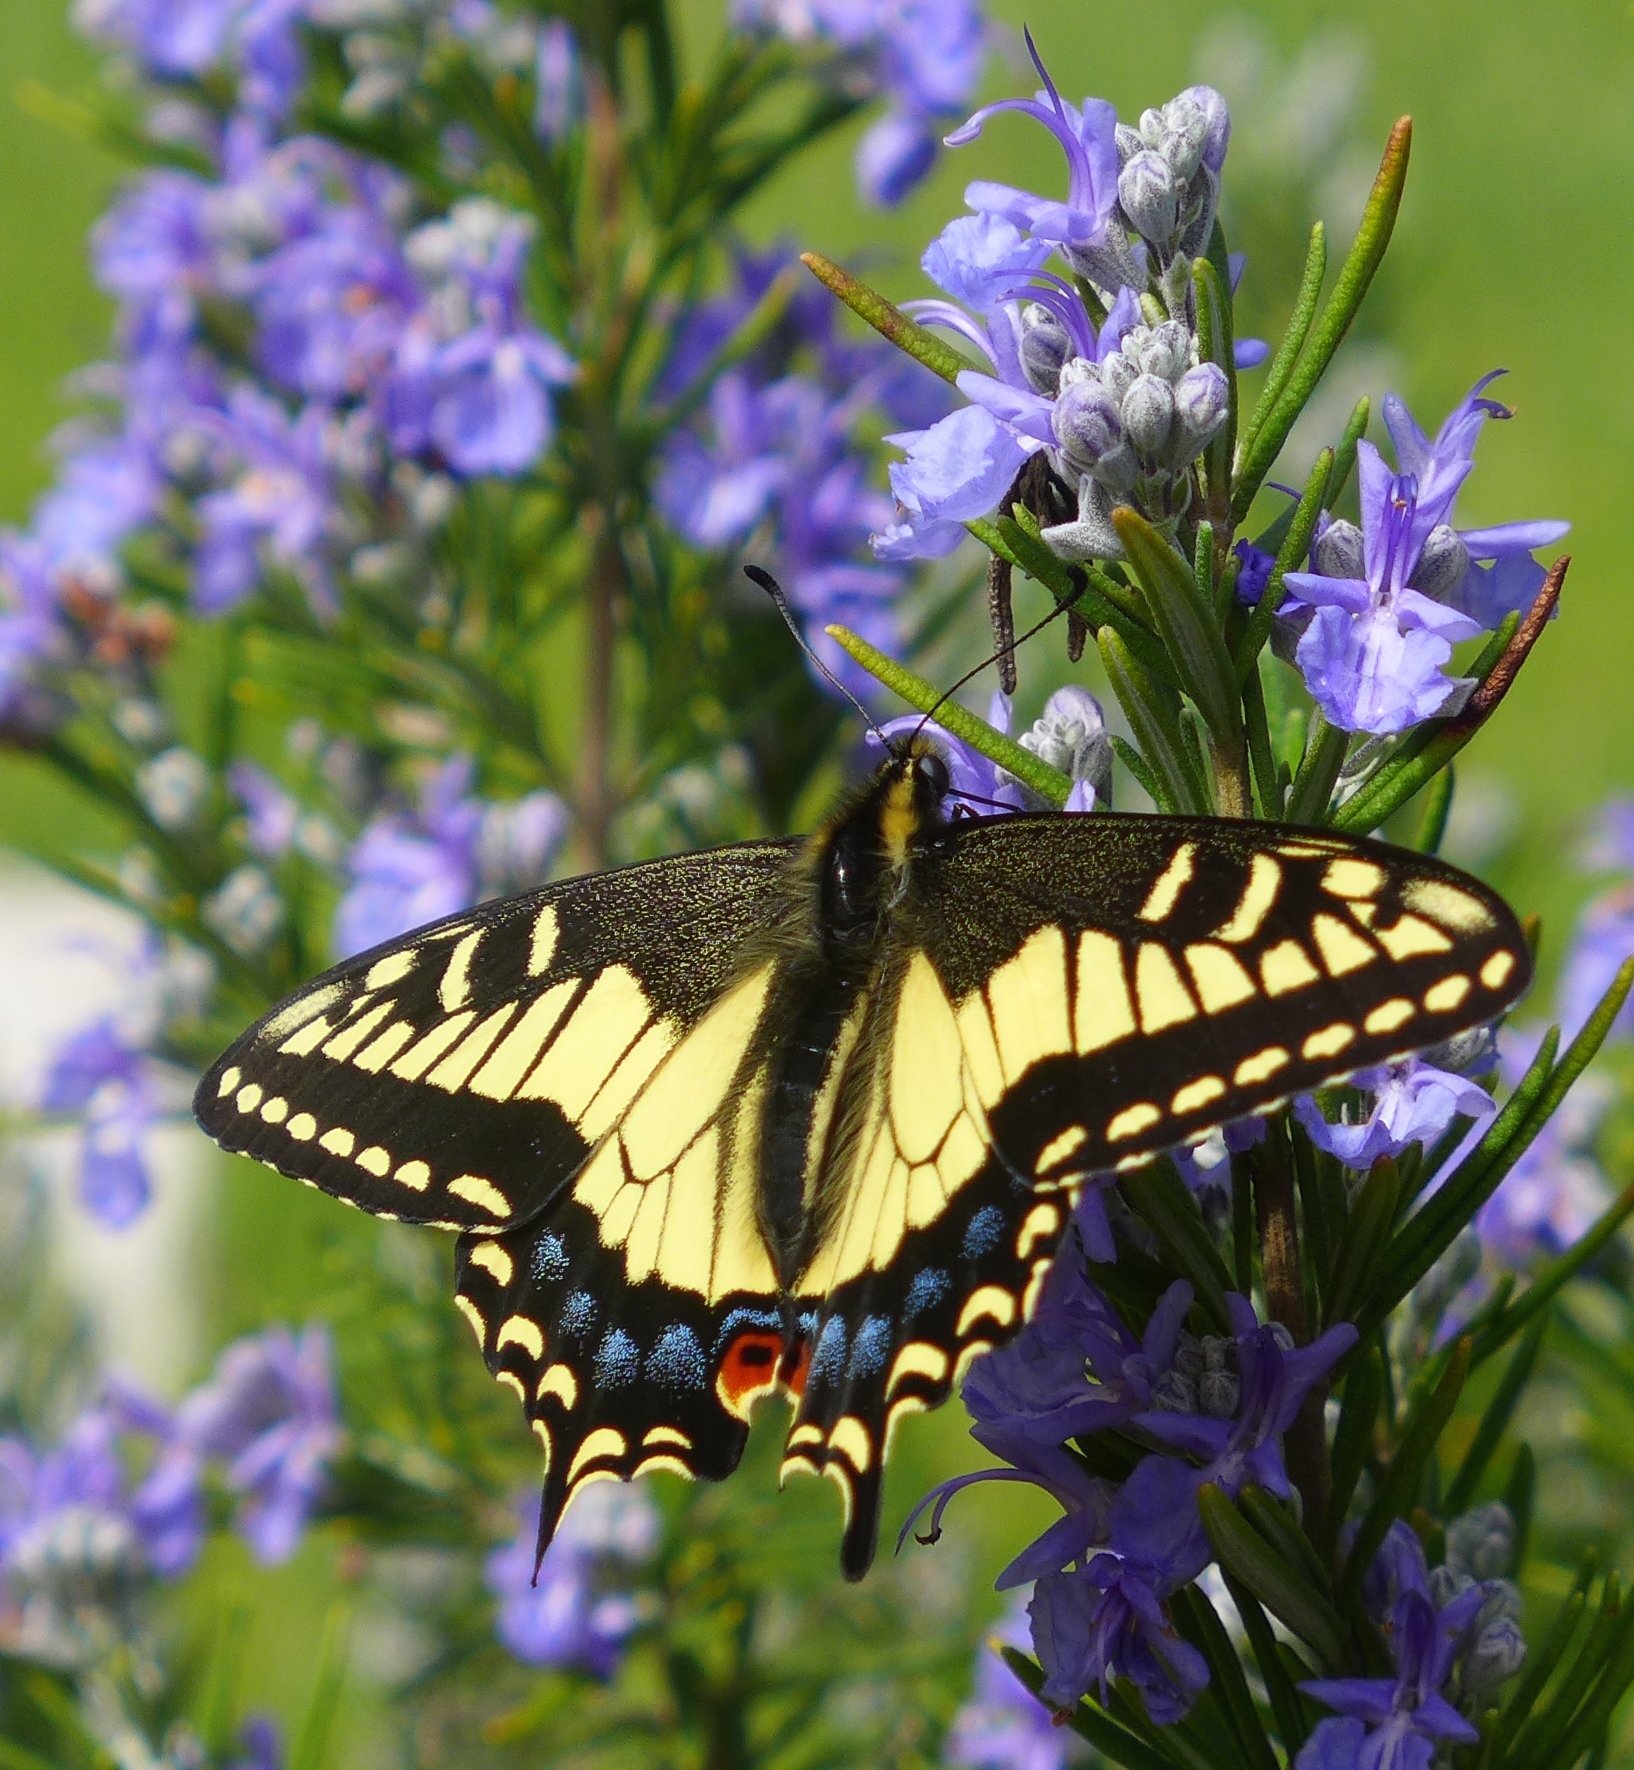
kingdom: Animalia
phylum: Arthropoda
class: Insecta
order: Lepidoptera
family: Papilionidae
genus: Papilio
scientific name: Papilio zelicaon
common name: Anise swallowtail
